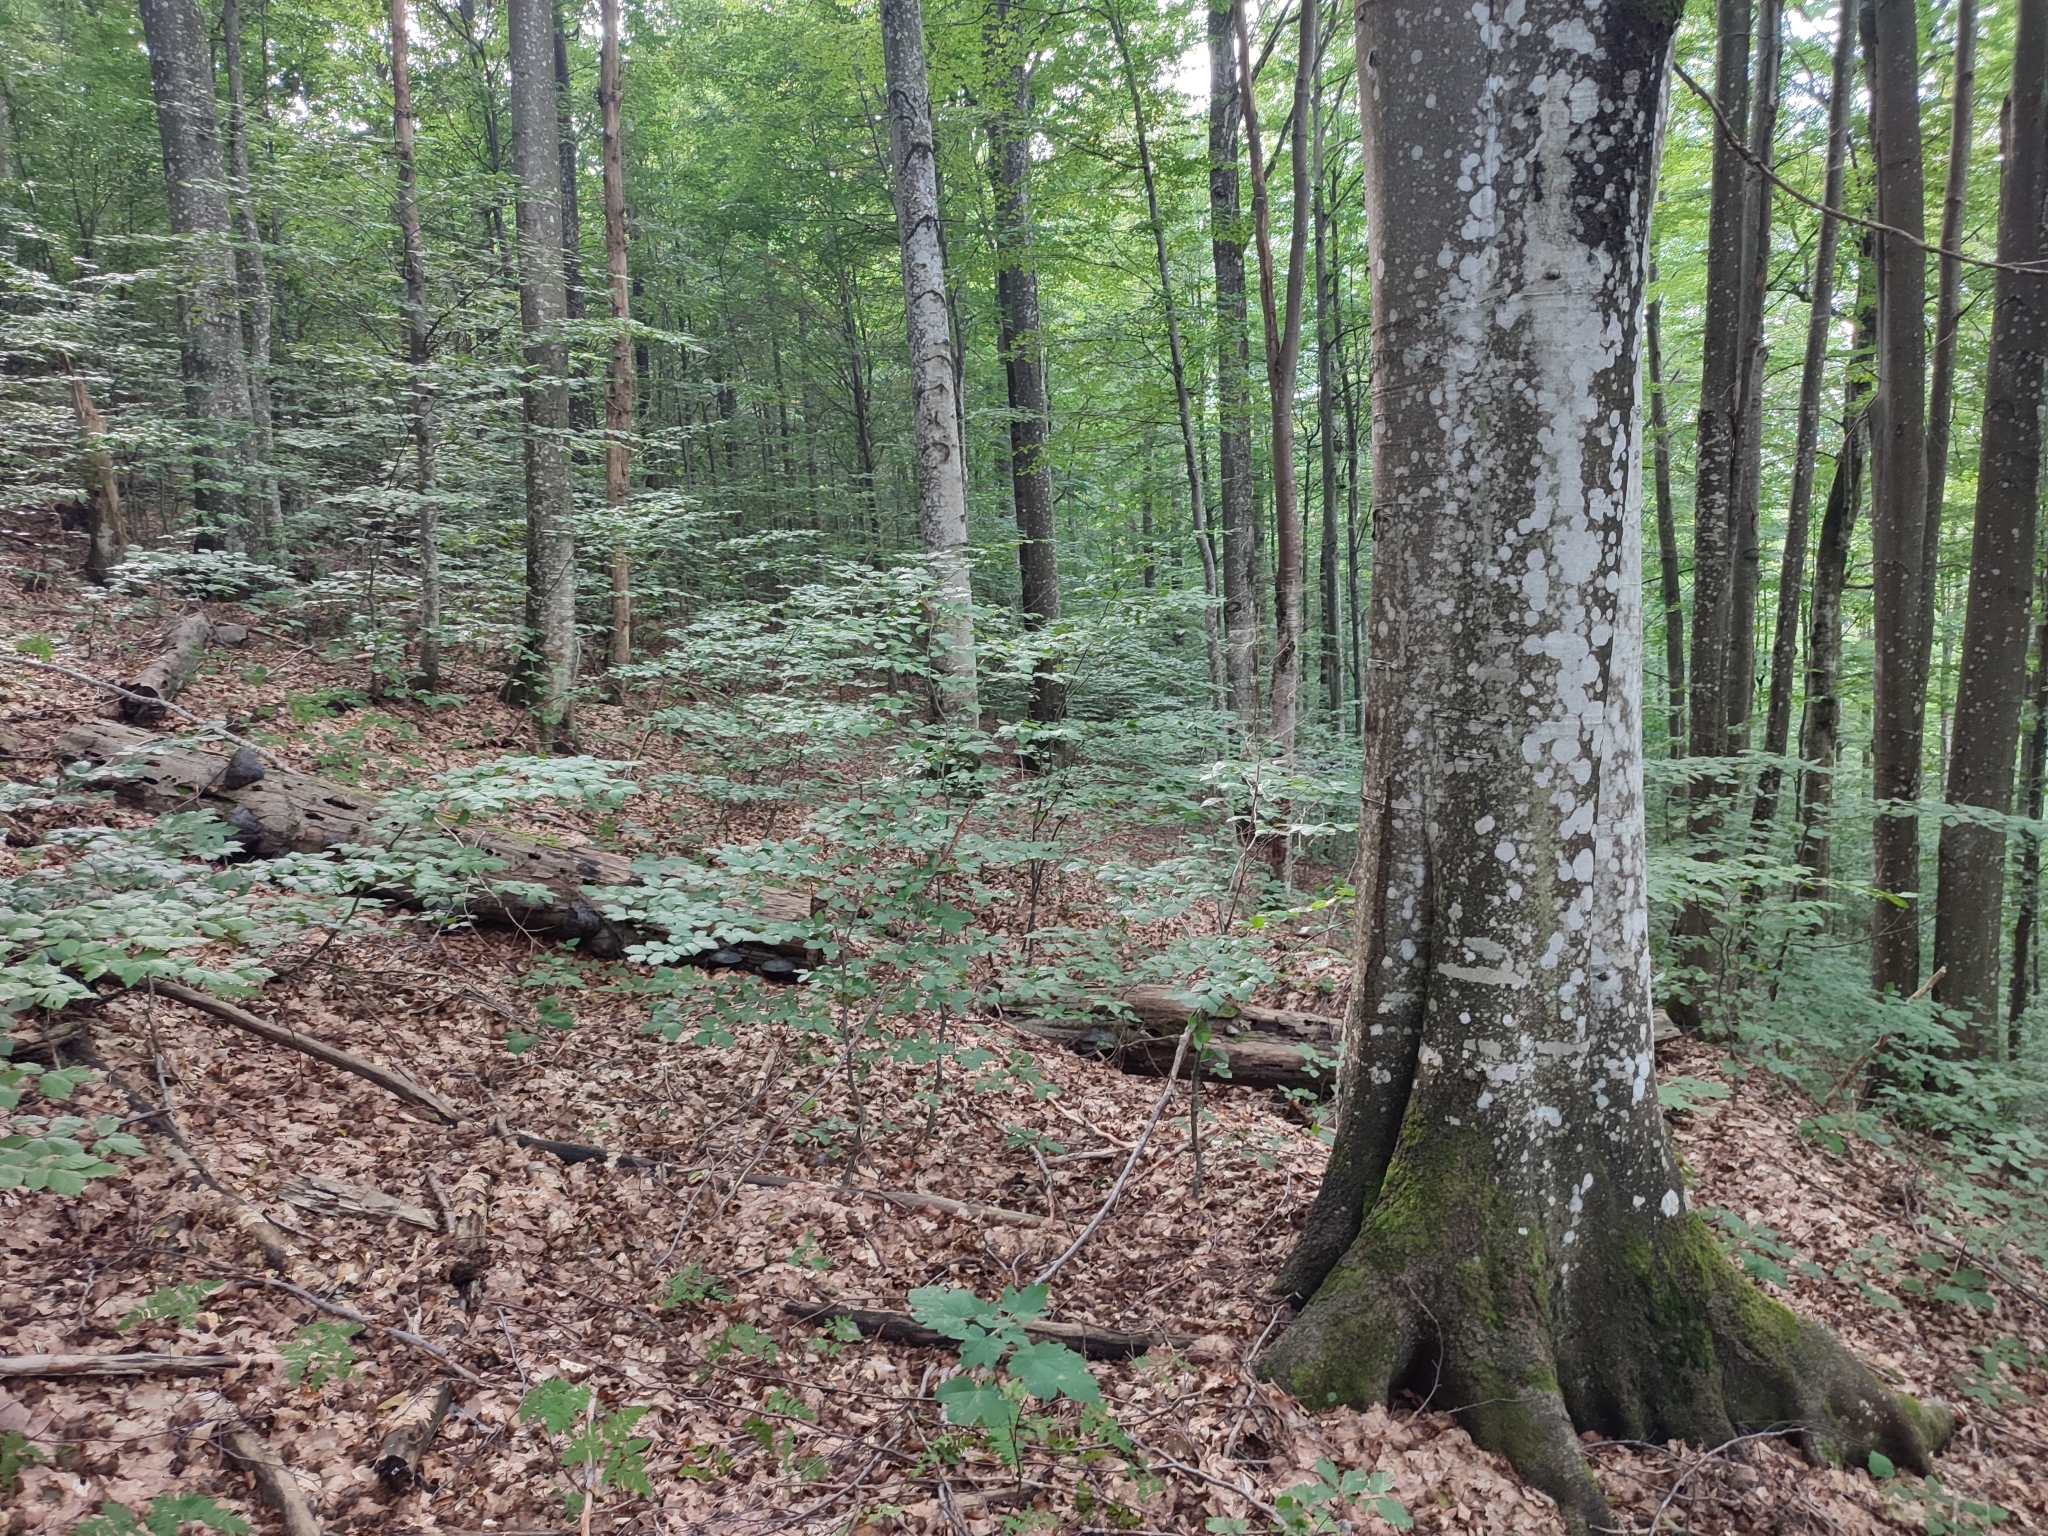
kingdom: Plantae
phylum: Tracheophyta
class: Magnoliopsida
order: Fagales
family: Fagaceae
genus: Fagus
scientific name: Fagus sylvatica
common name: Beech
